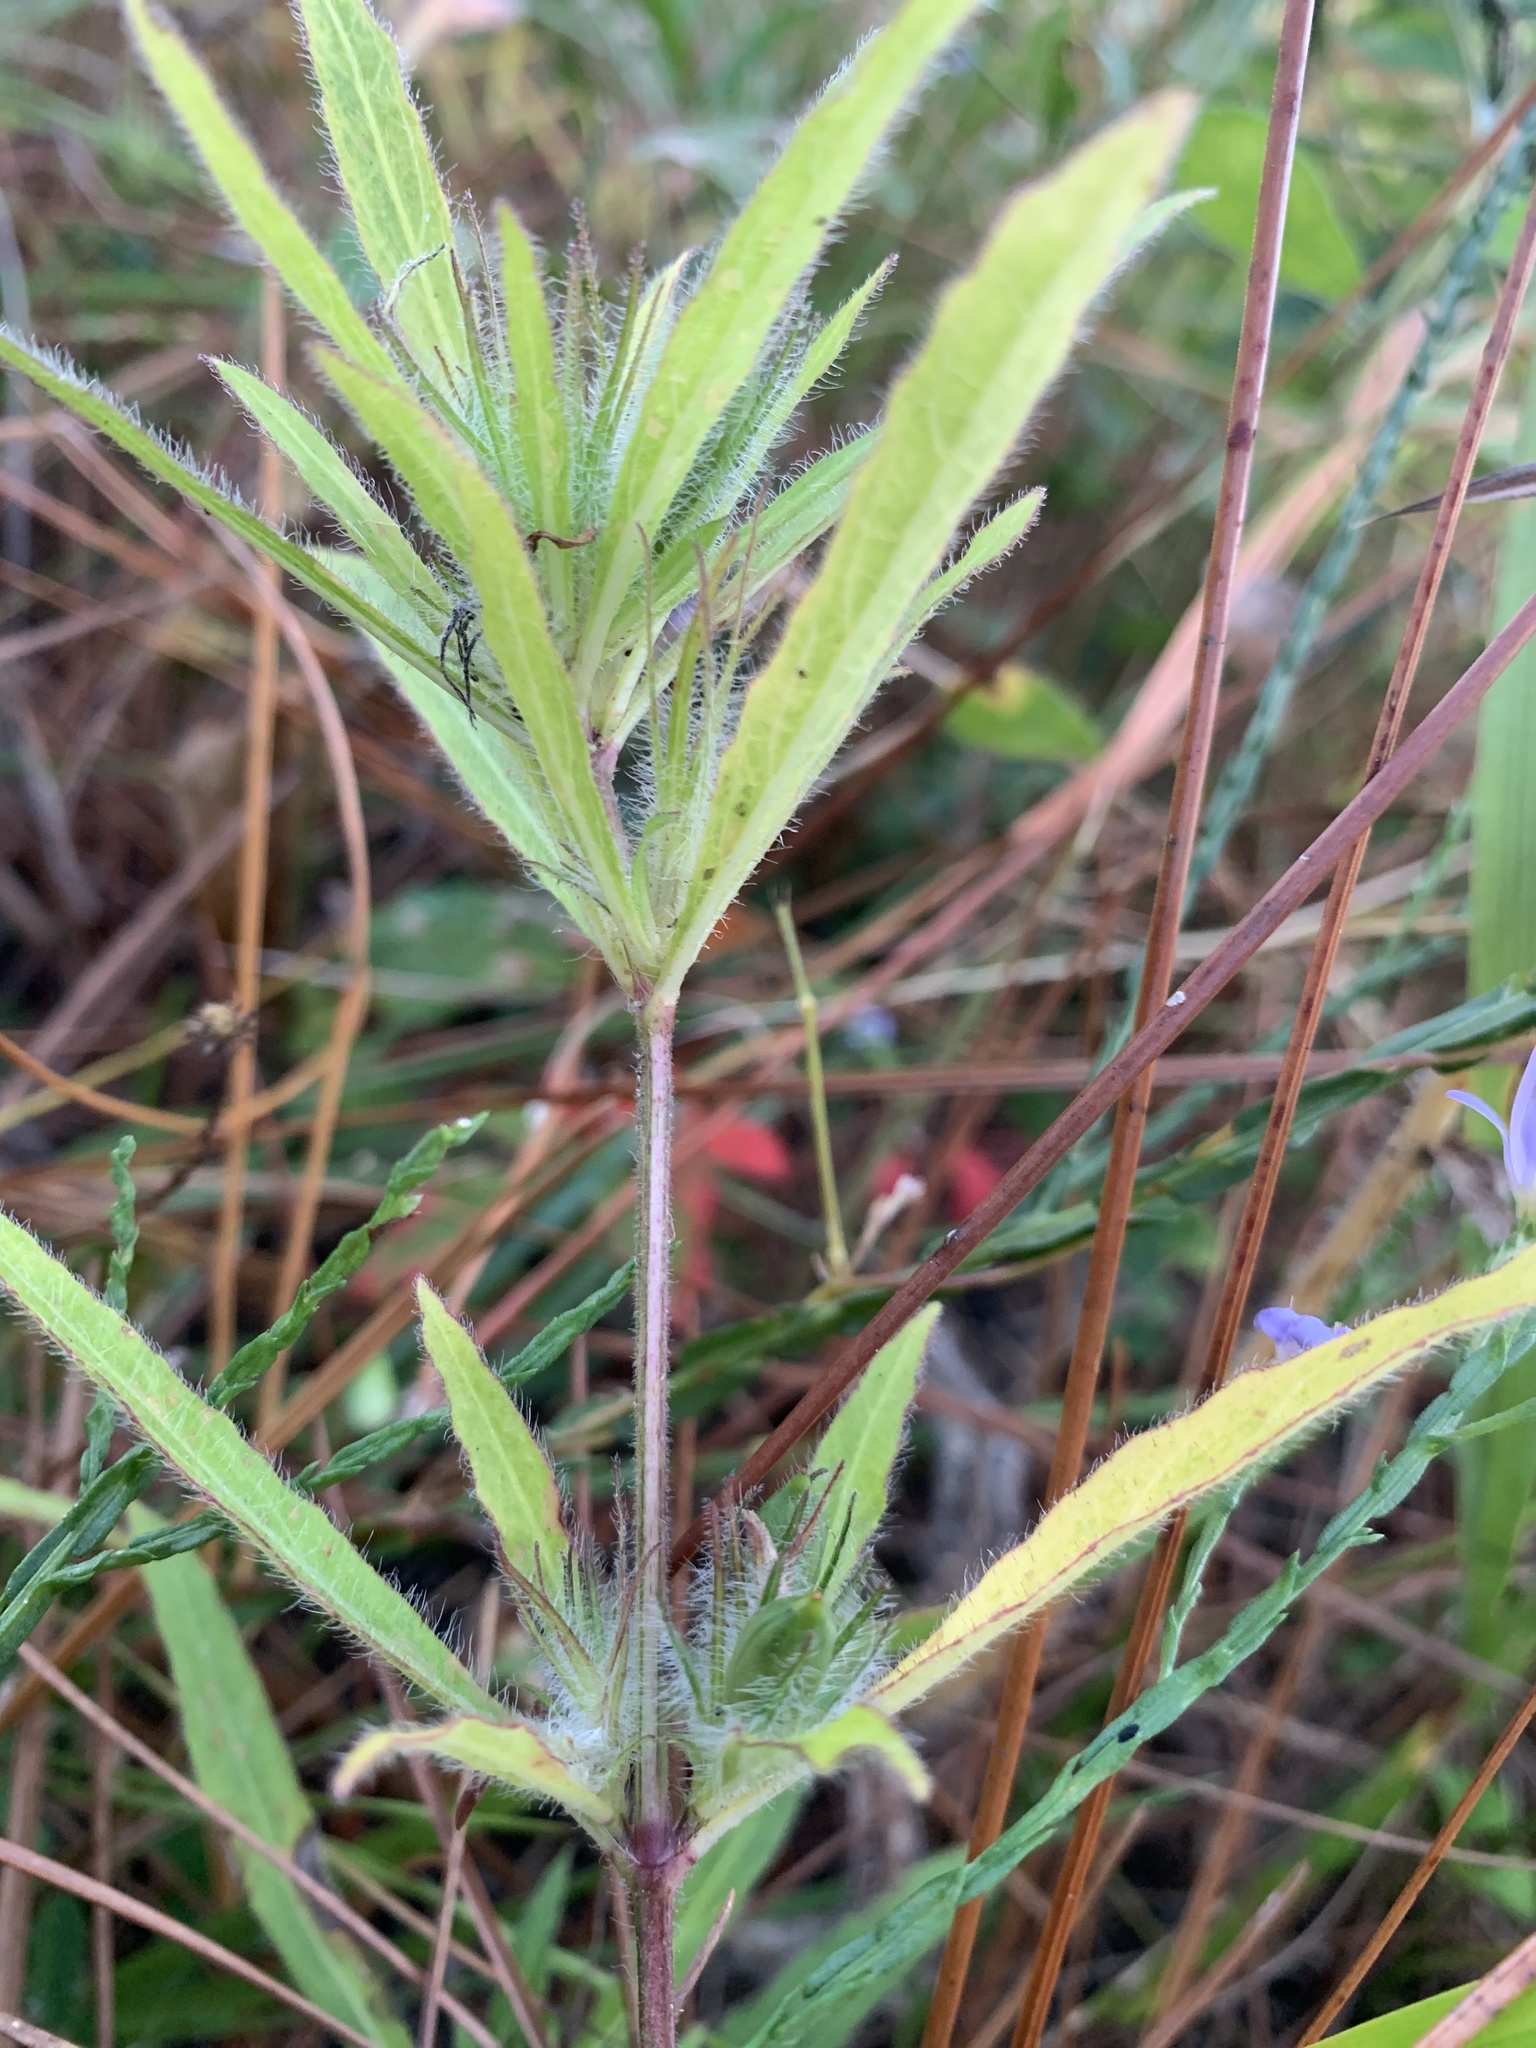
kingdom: Plantae
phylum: Tracheophyta
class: Magnoliopsida
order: Lamiales
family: Acanthaceae
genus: Ruellia
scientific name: Ruellia caroliniensis
